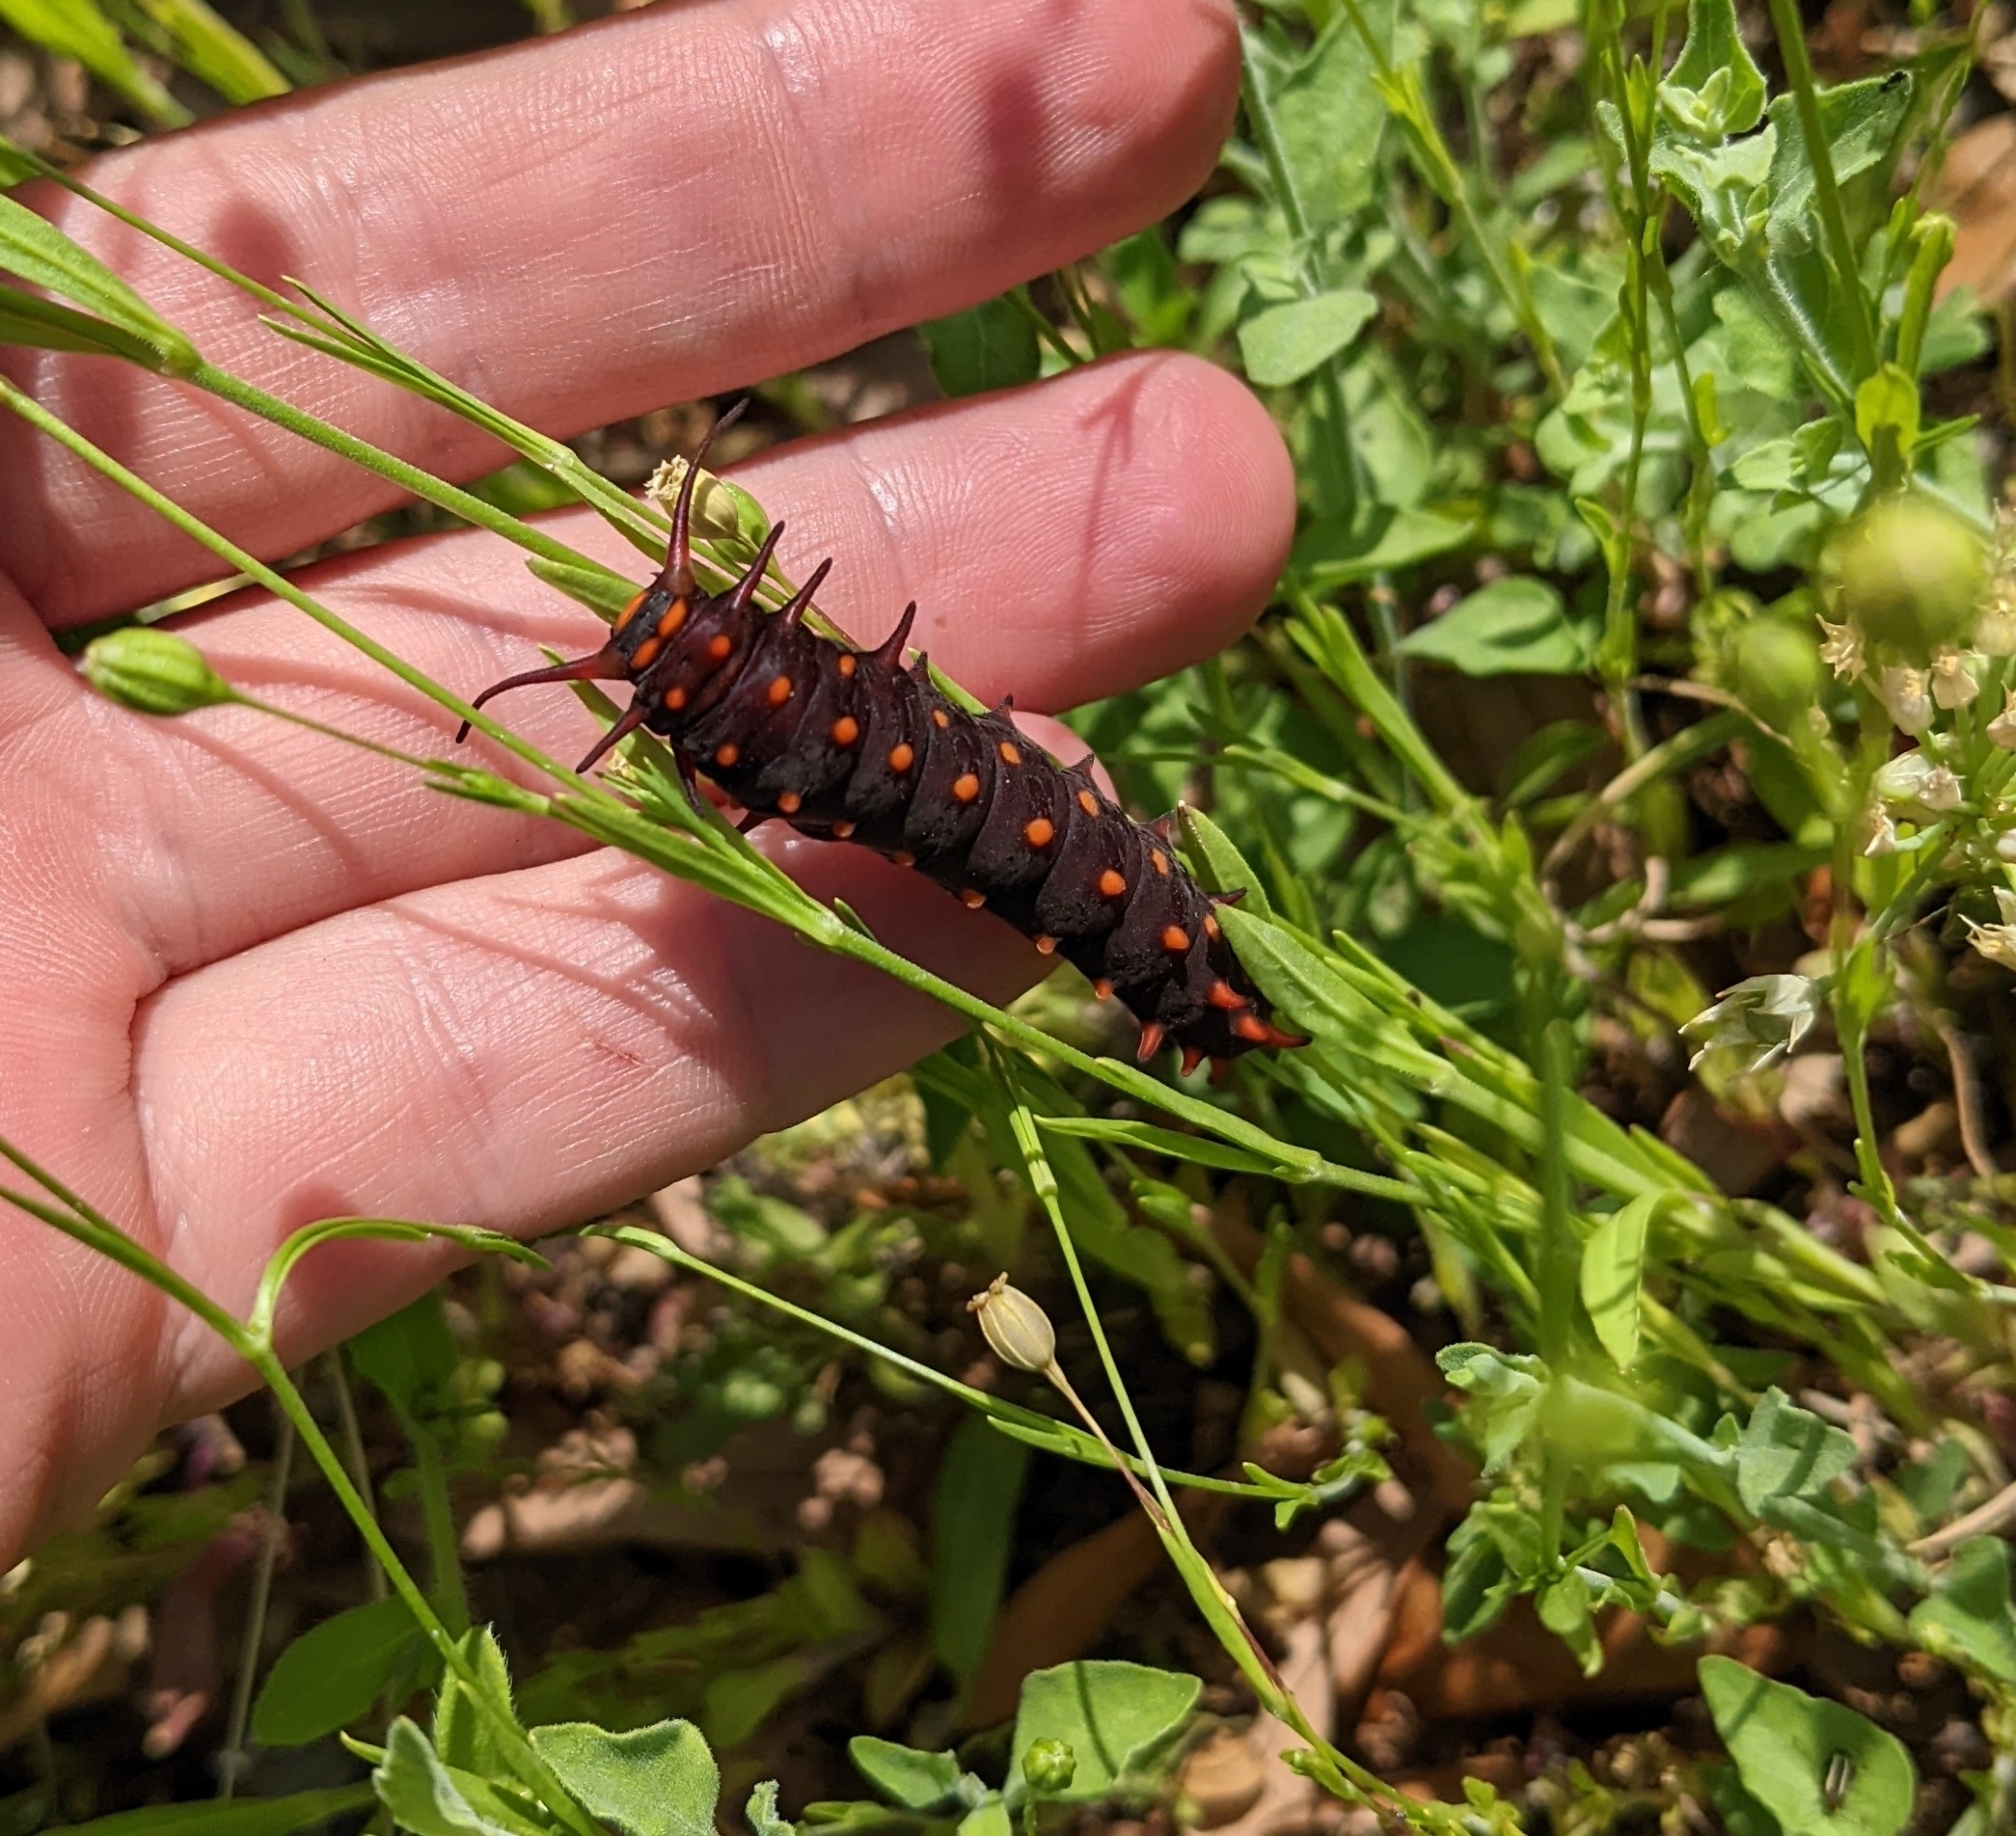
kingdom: Animalia
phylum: Arthropoda
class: Insecta
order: Lepidoptera
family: Papilionidae
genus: Battus
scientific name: Battus philenor
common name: Pipevine swallowtail
